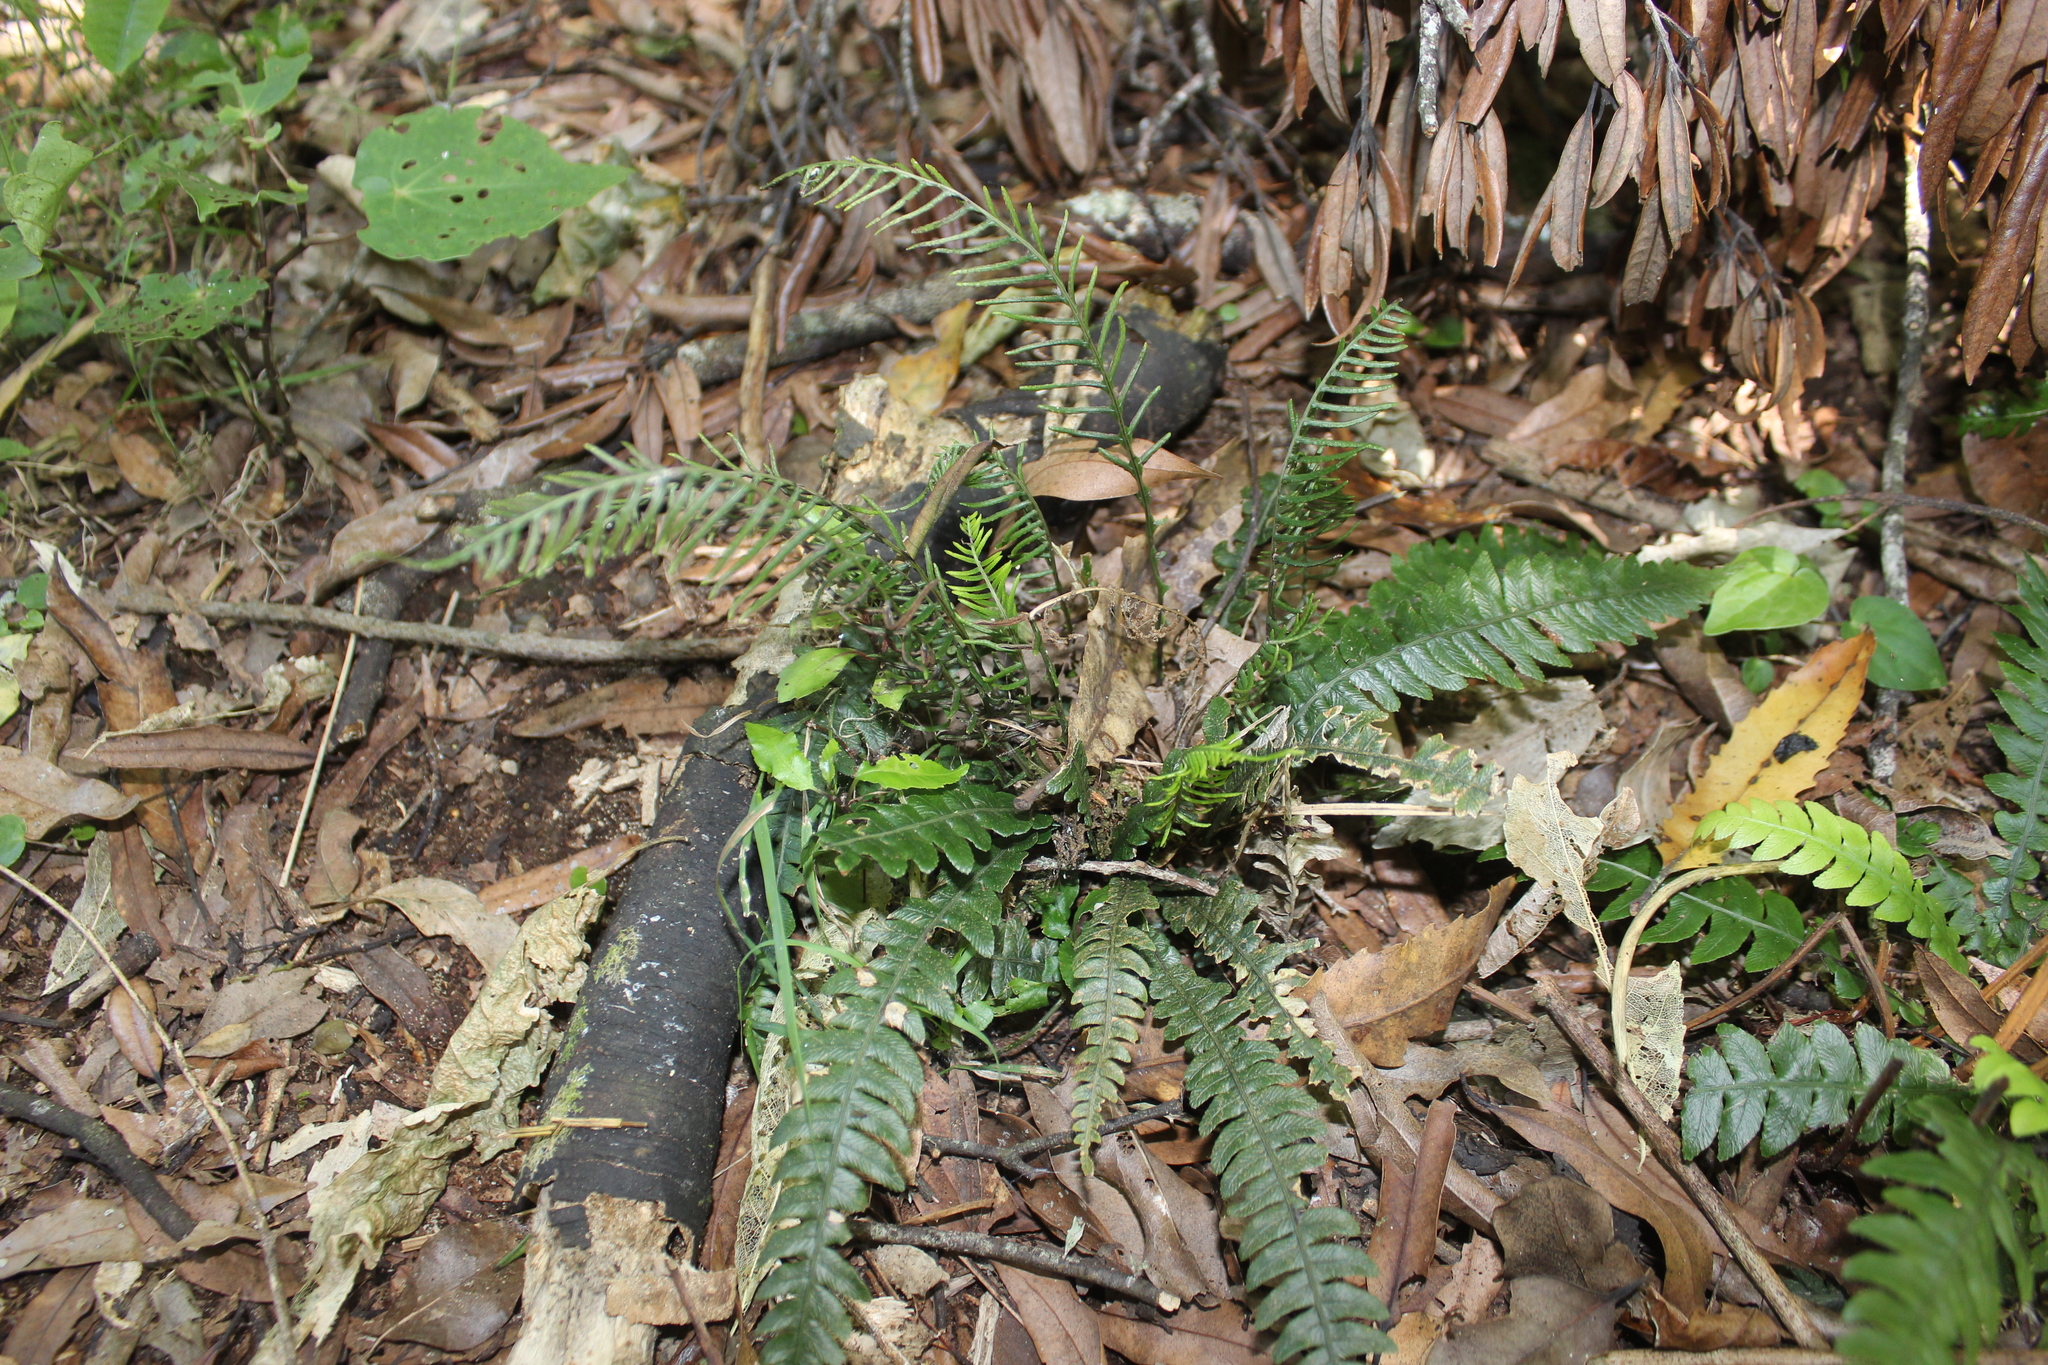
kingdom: Plantae
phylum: Tracheophyta
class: Polypodiopsida
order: Polypodiales
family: Blechnaceae
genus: Austroblechnum
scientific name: Austroblechnum membranaceum
